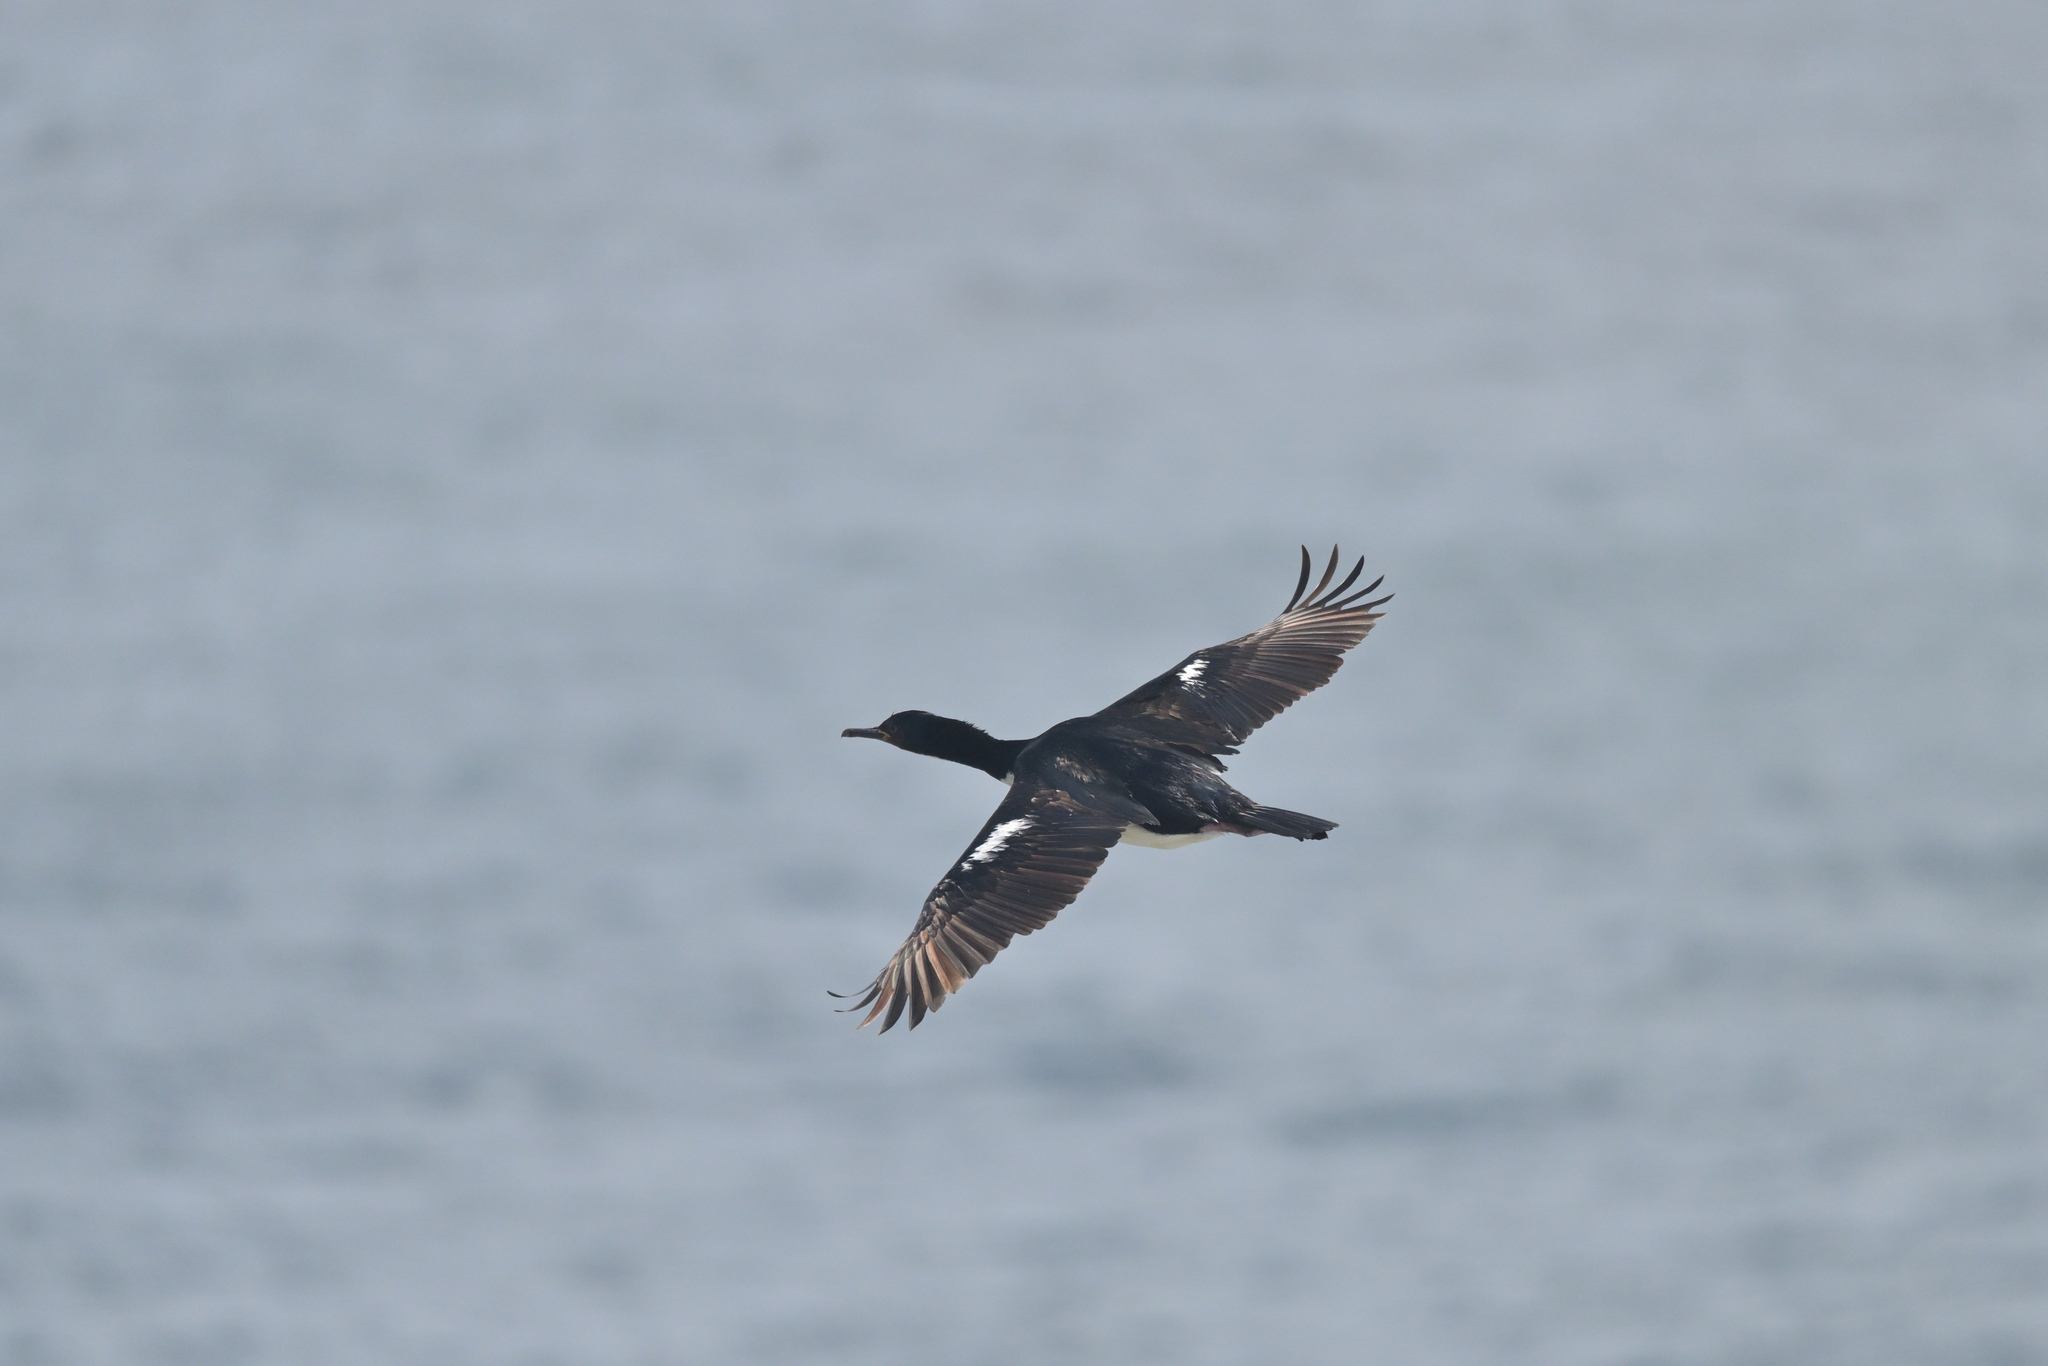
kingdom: Animalia
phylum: Chordata
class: Aves
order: Suliformes
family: Phalacrocoracidae
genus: Leucocarbo
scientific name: Leucocarbo colensoi
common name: Auckland shag
